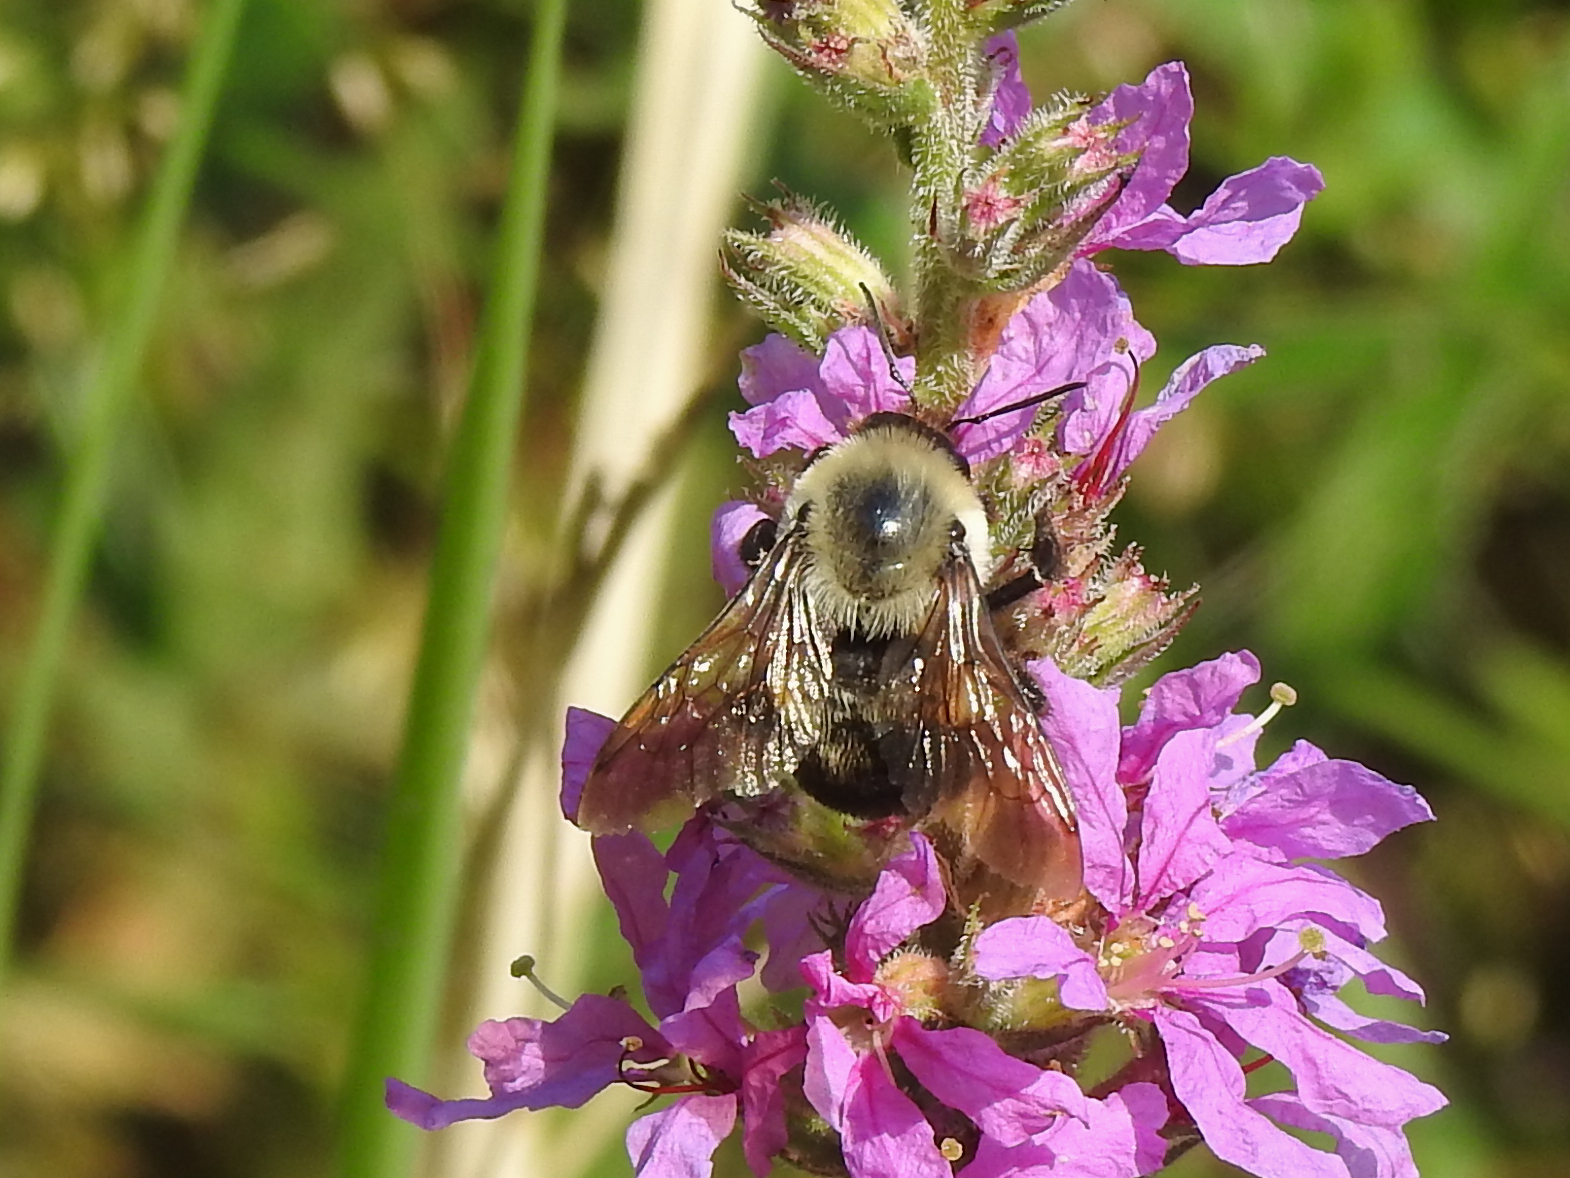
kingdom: Animalia
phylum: Arthropoda
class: Insecta
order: Hymenoptera
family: Apidae
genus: Bombus
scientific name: Bombus griseocollis
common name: Brown-belted bumble bee
